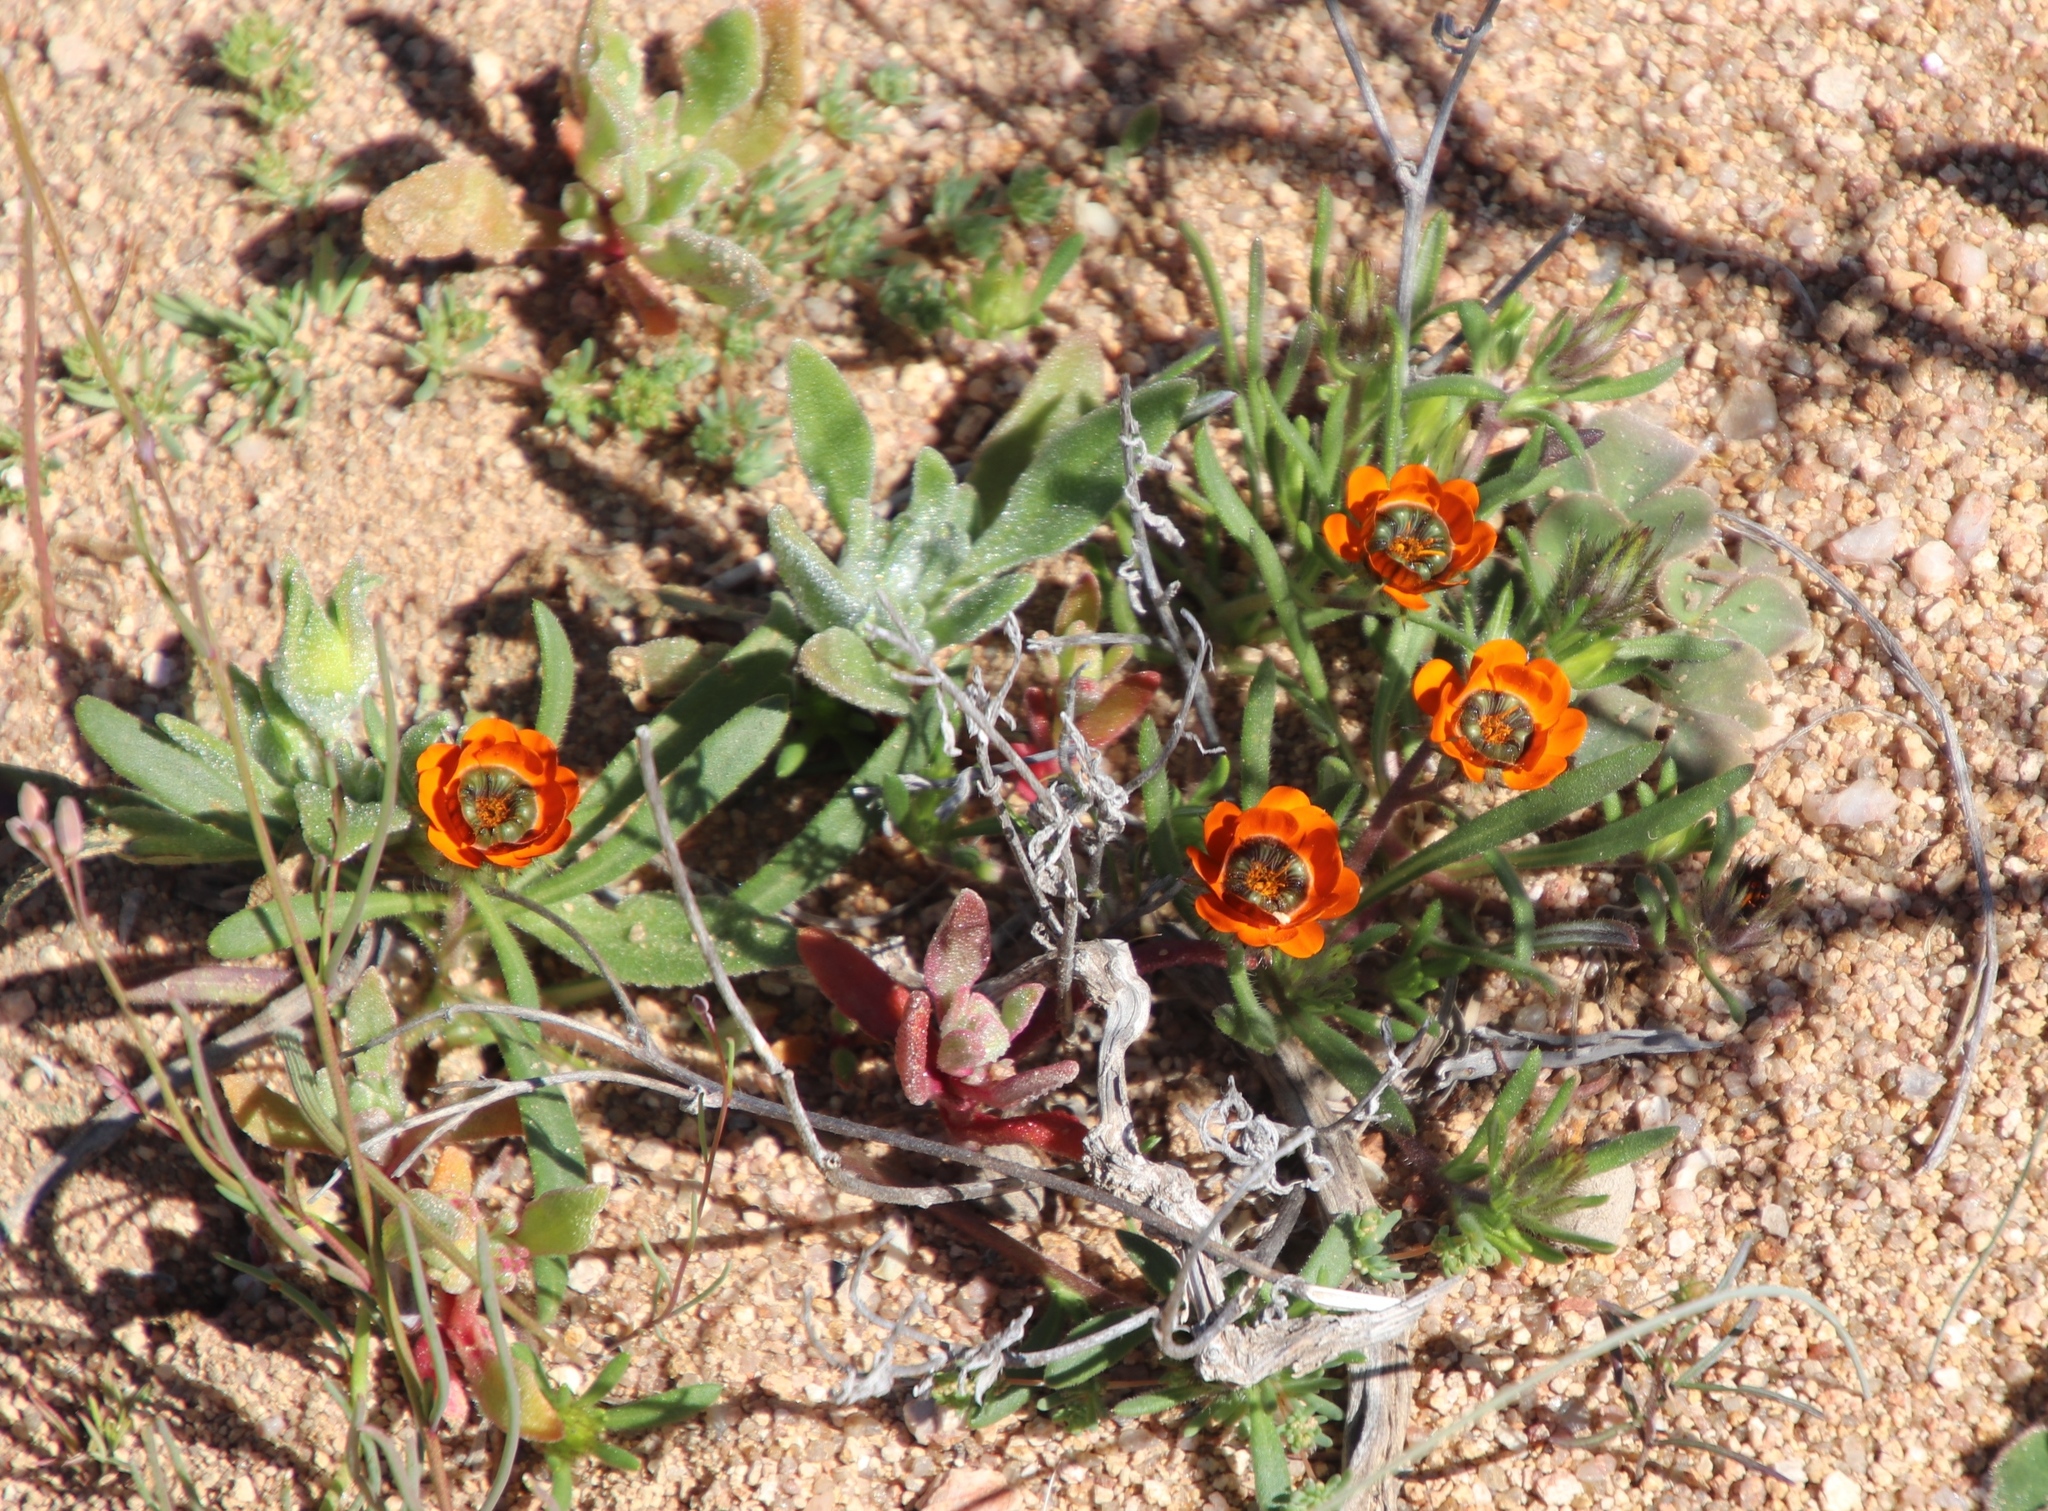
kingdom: Plantae
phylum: Tracheophyta
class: Magnoliopsida
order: Asterales
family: Asteraceae
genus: Gorteria
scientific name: Gorteria diffusa
